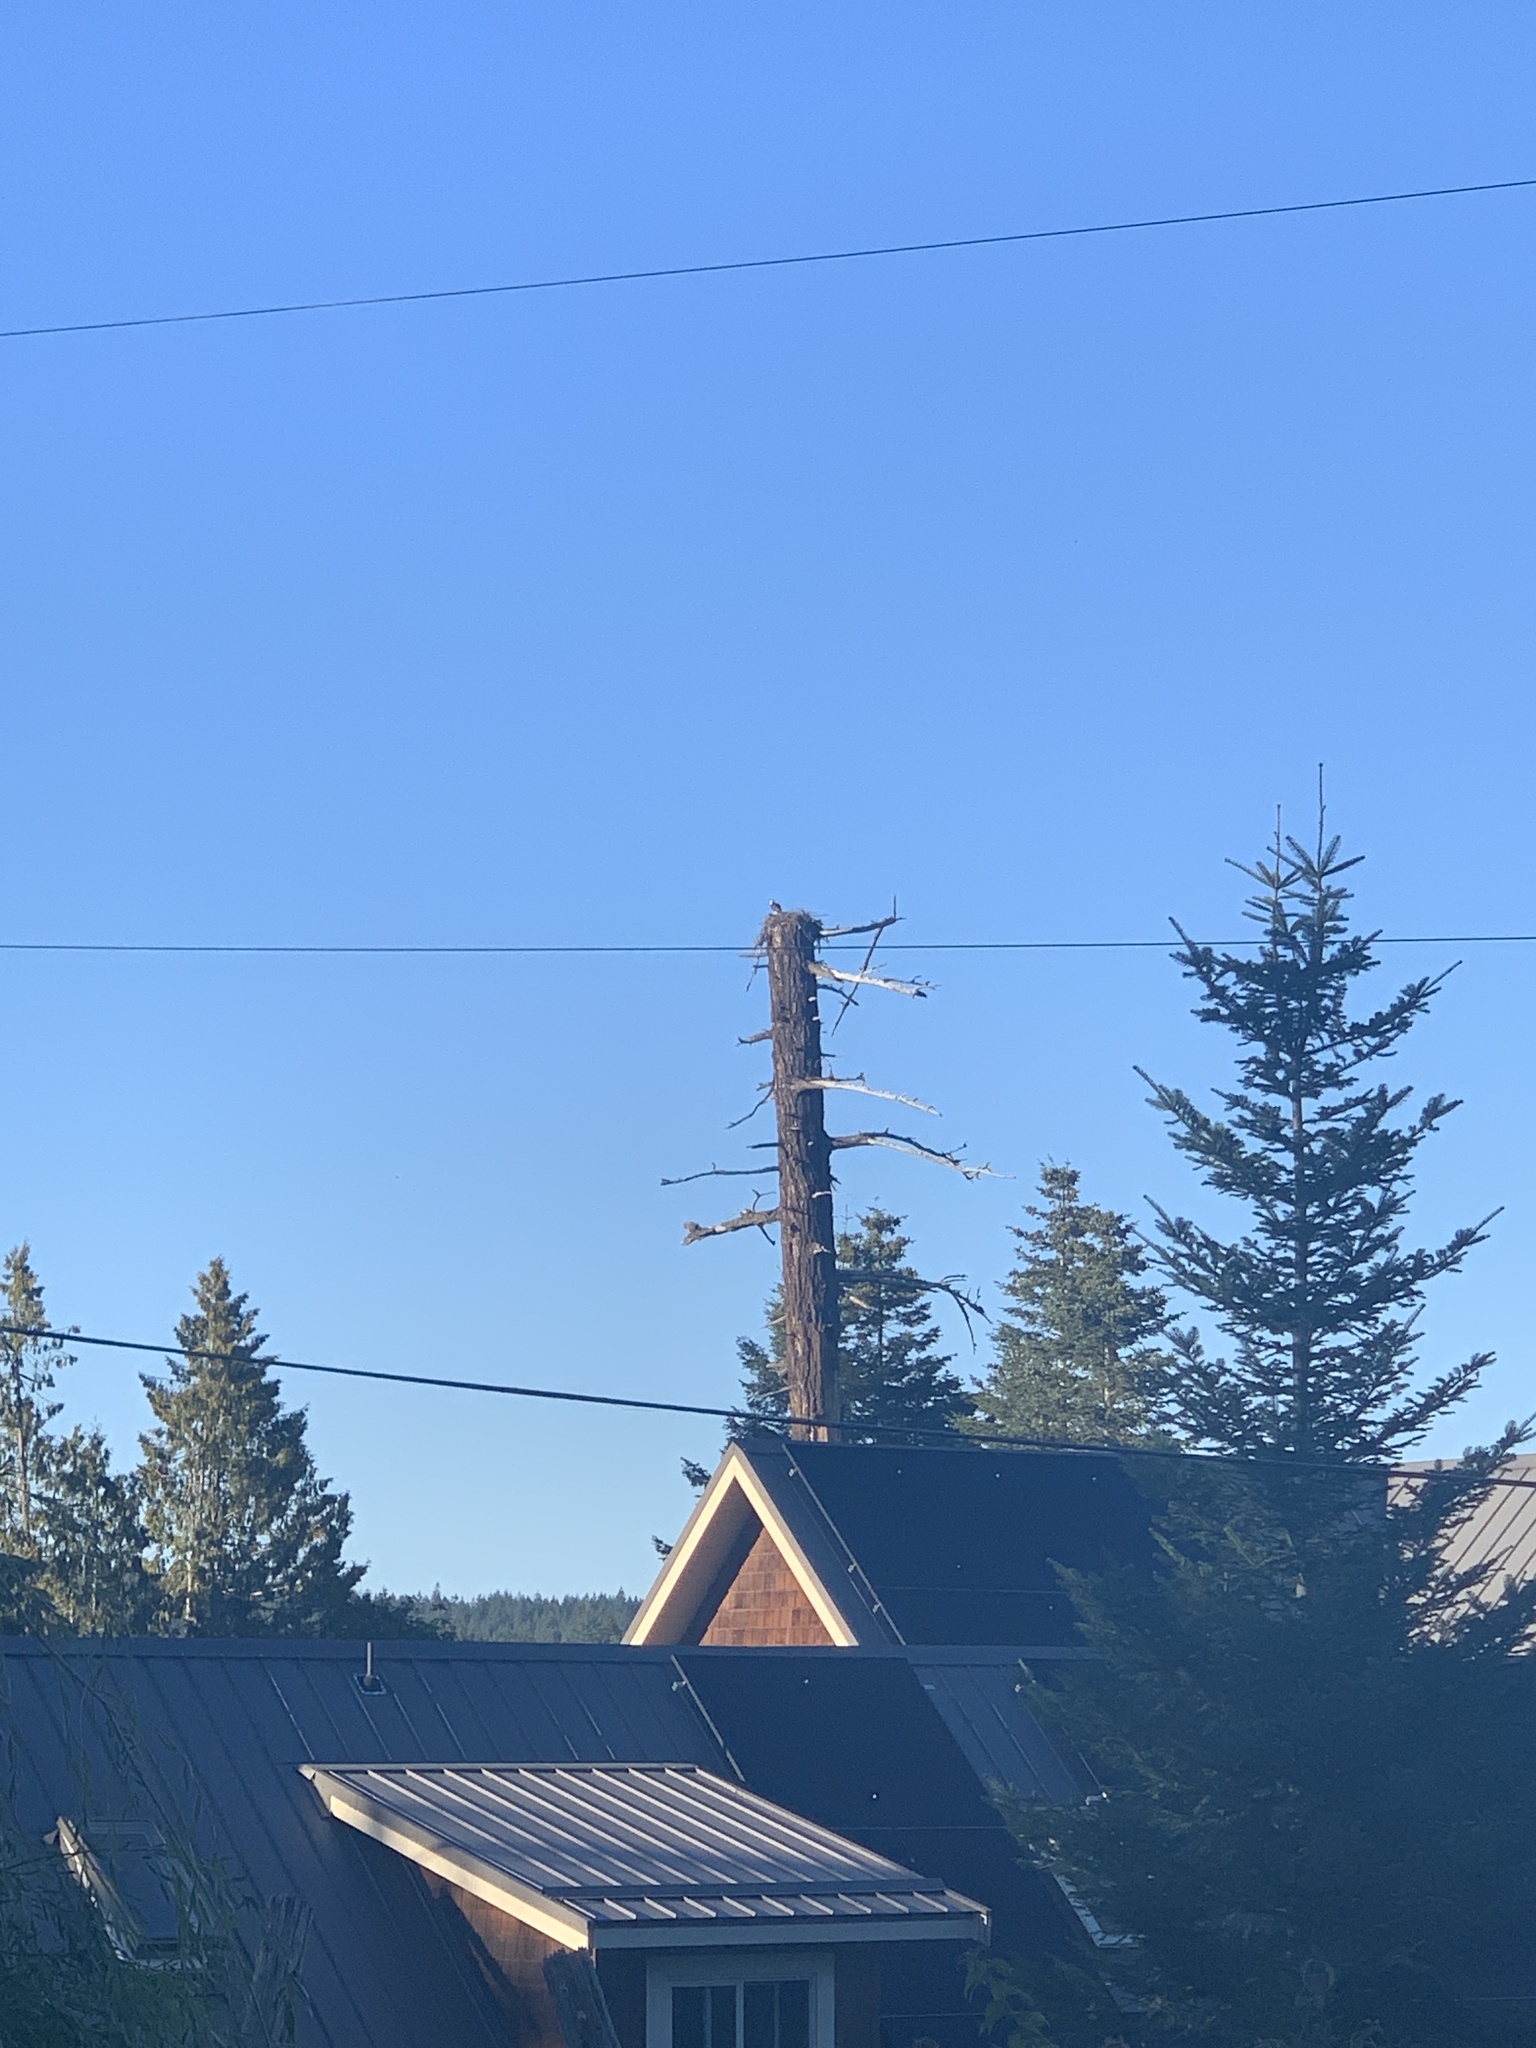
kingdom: Animalia
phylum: Chordata
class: Aves
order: Accipitriformes
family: Pandionidae
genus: Pandion
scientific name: Pandion haliaetus
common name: Osprey
